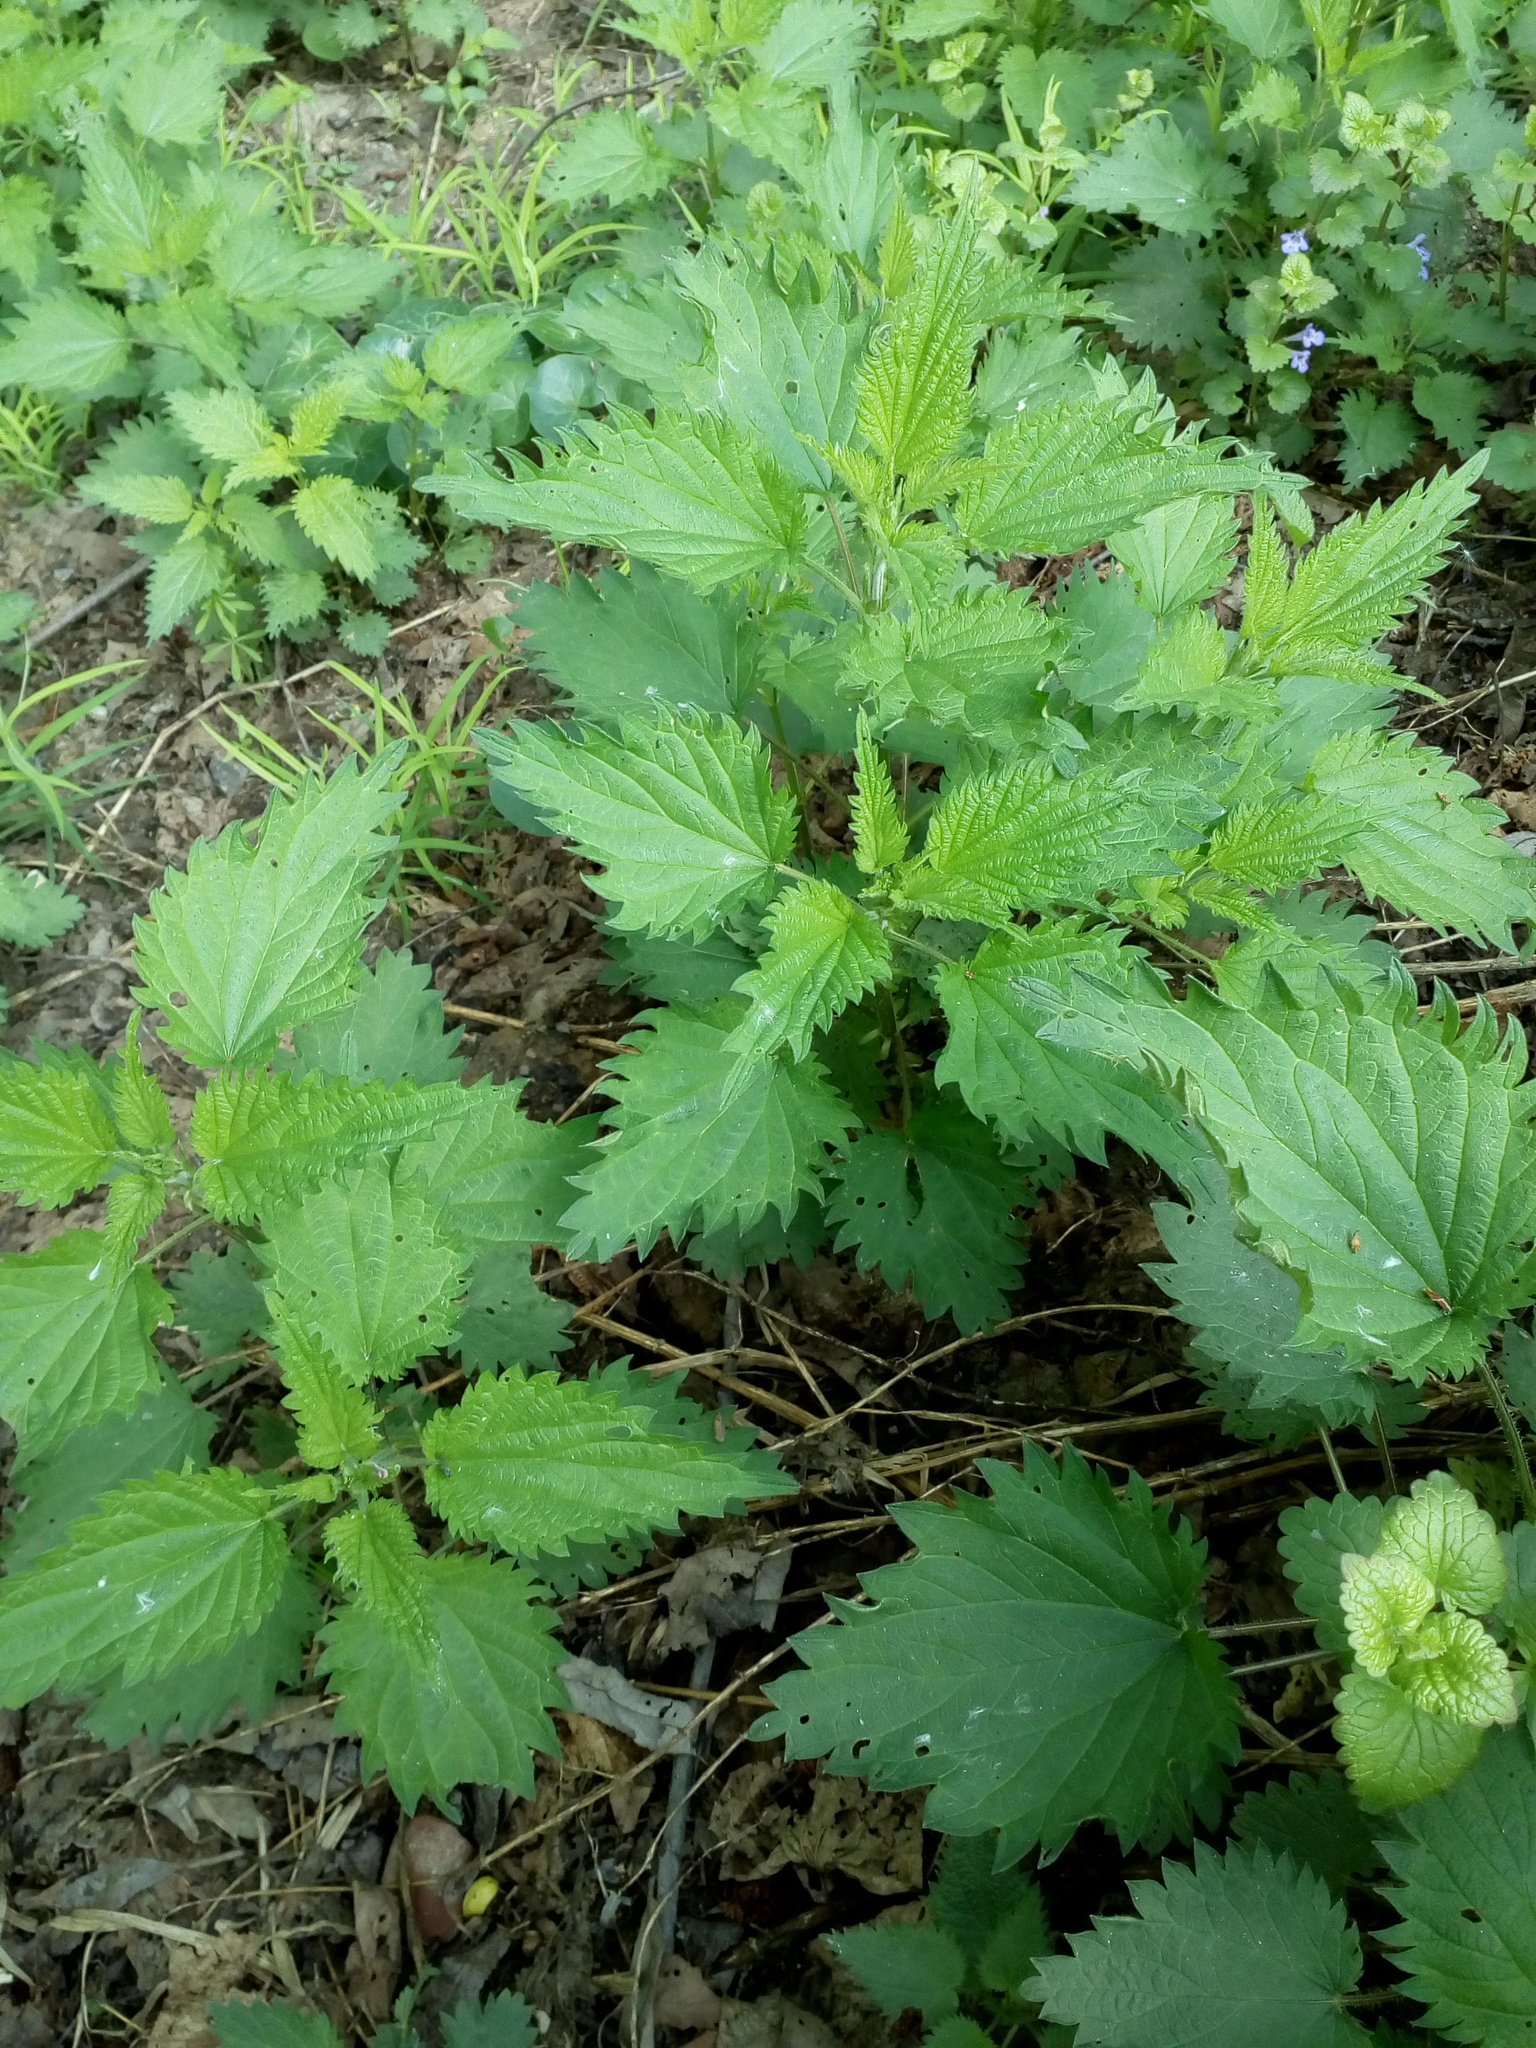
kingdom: Plantae
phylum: Tracheophyta
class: Magnoliopsida
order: Rosales
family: Urticaceae
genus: Urtica
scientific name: Urtica dioica
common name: Common nettle
